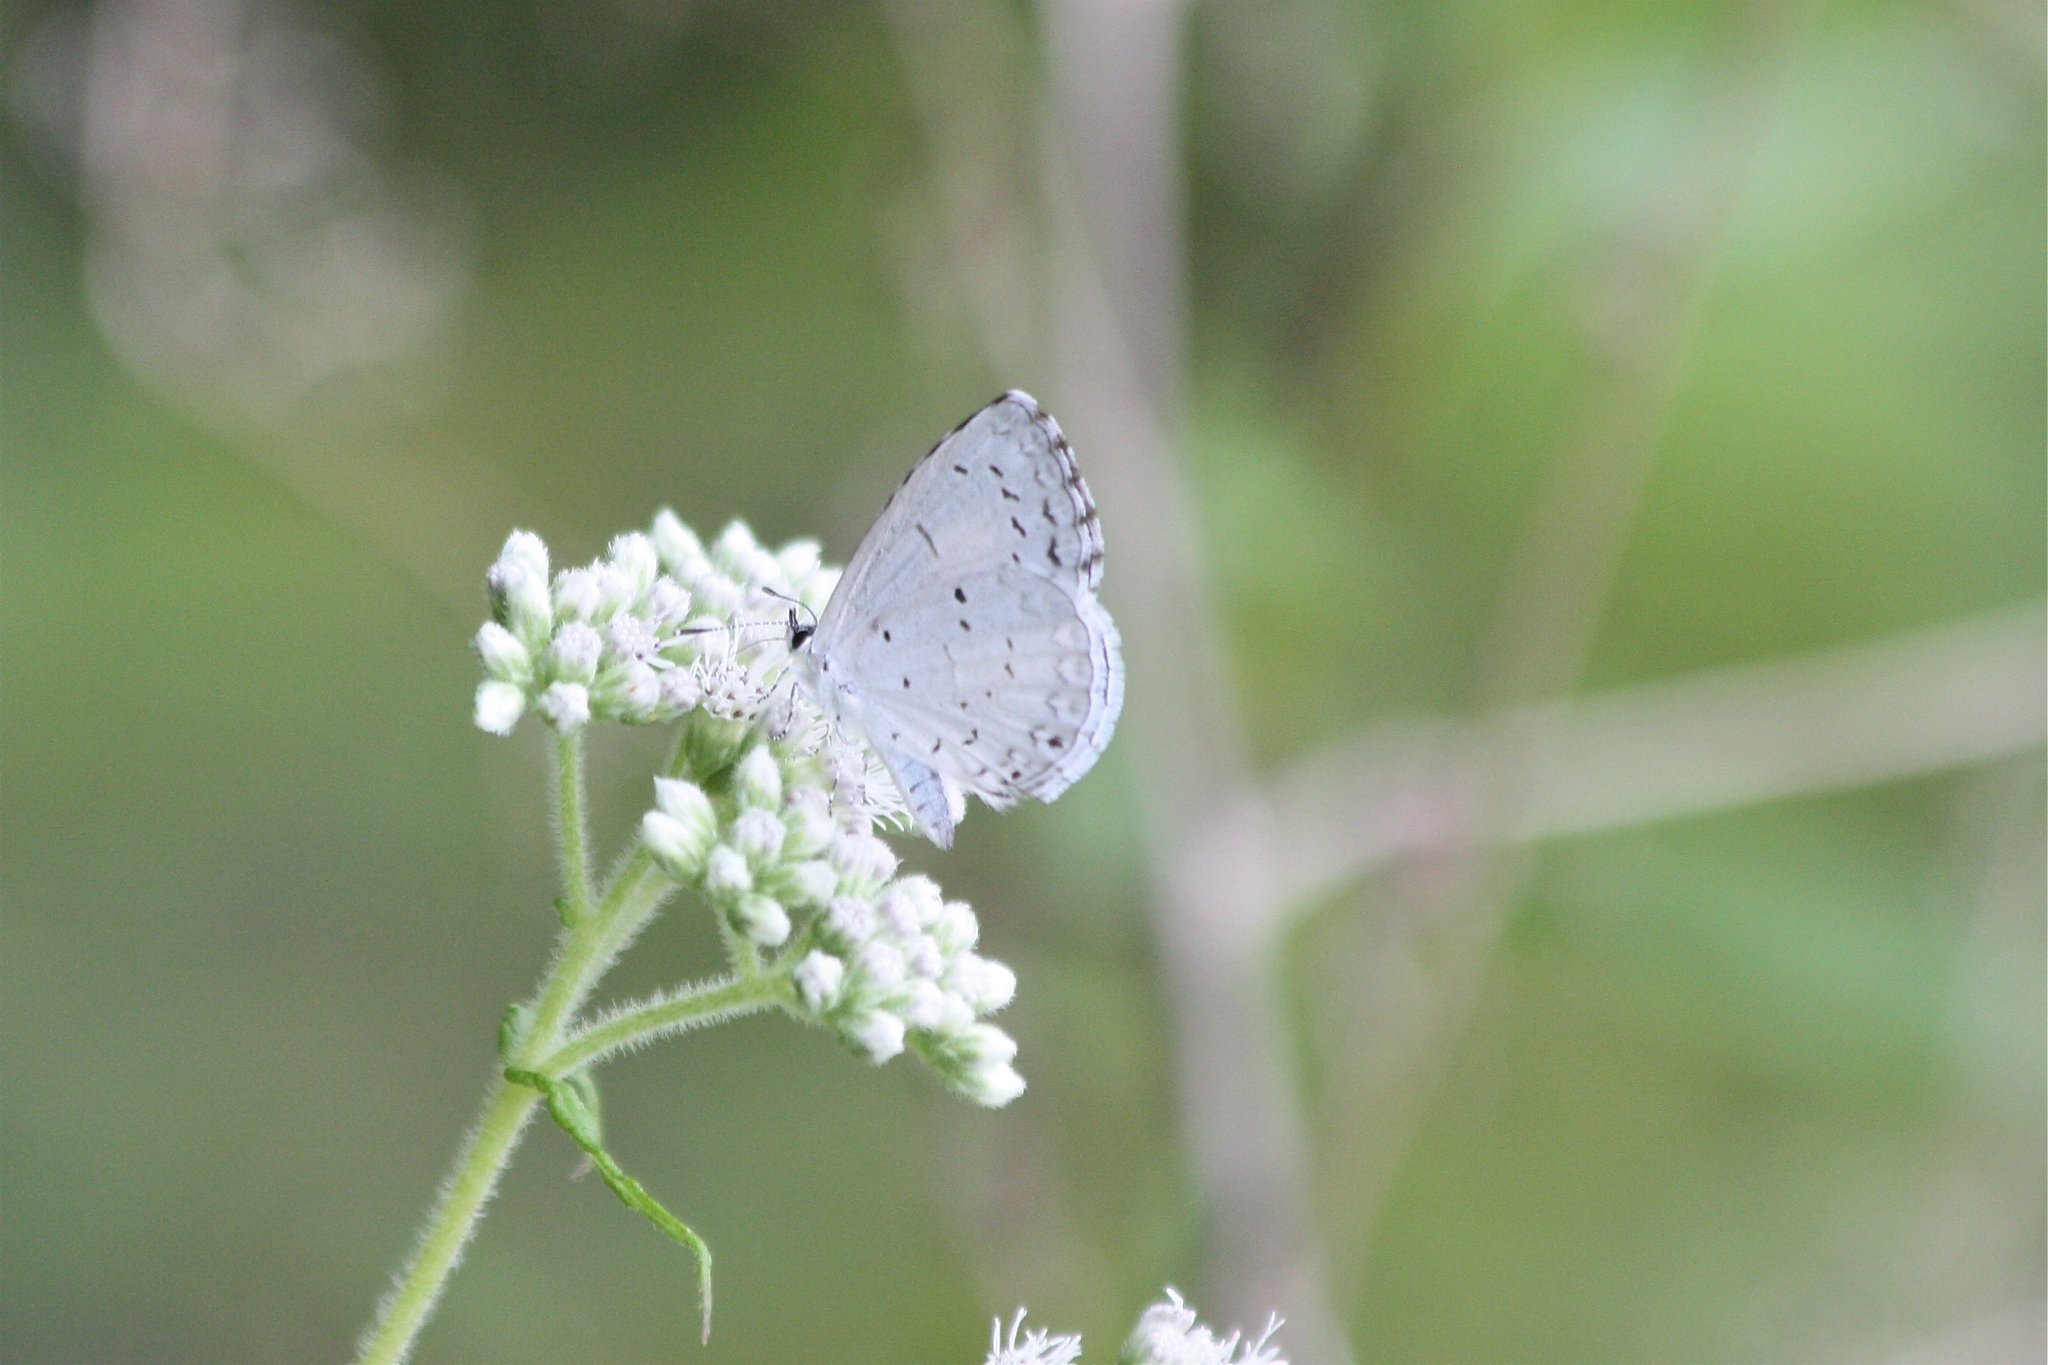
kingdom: Animalia
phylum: Arthropoda
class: Insecta
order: Lepidoptera
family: Lycaenidae
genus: Cyaniris
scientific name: Cyaniris neglecta
